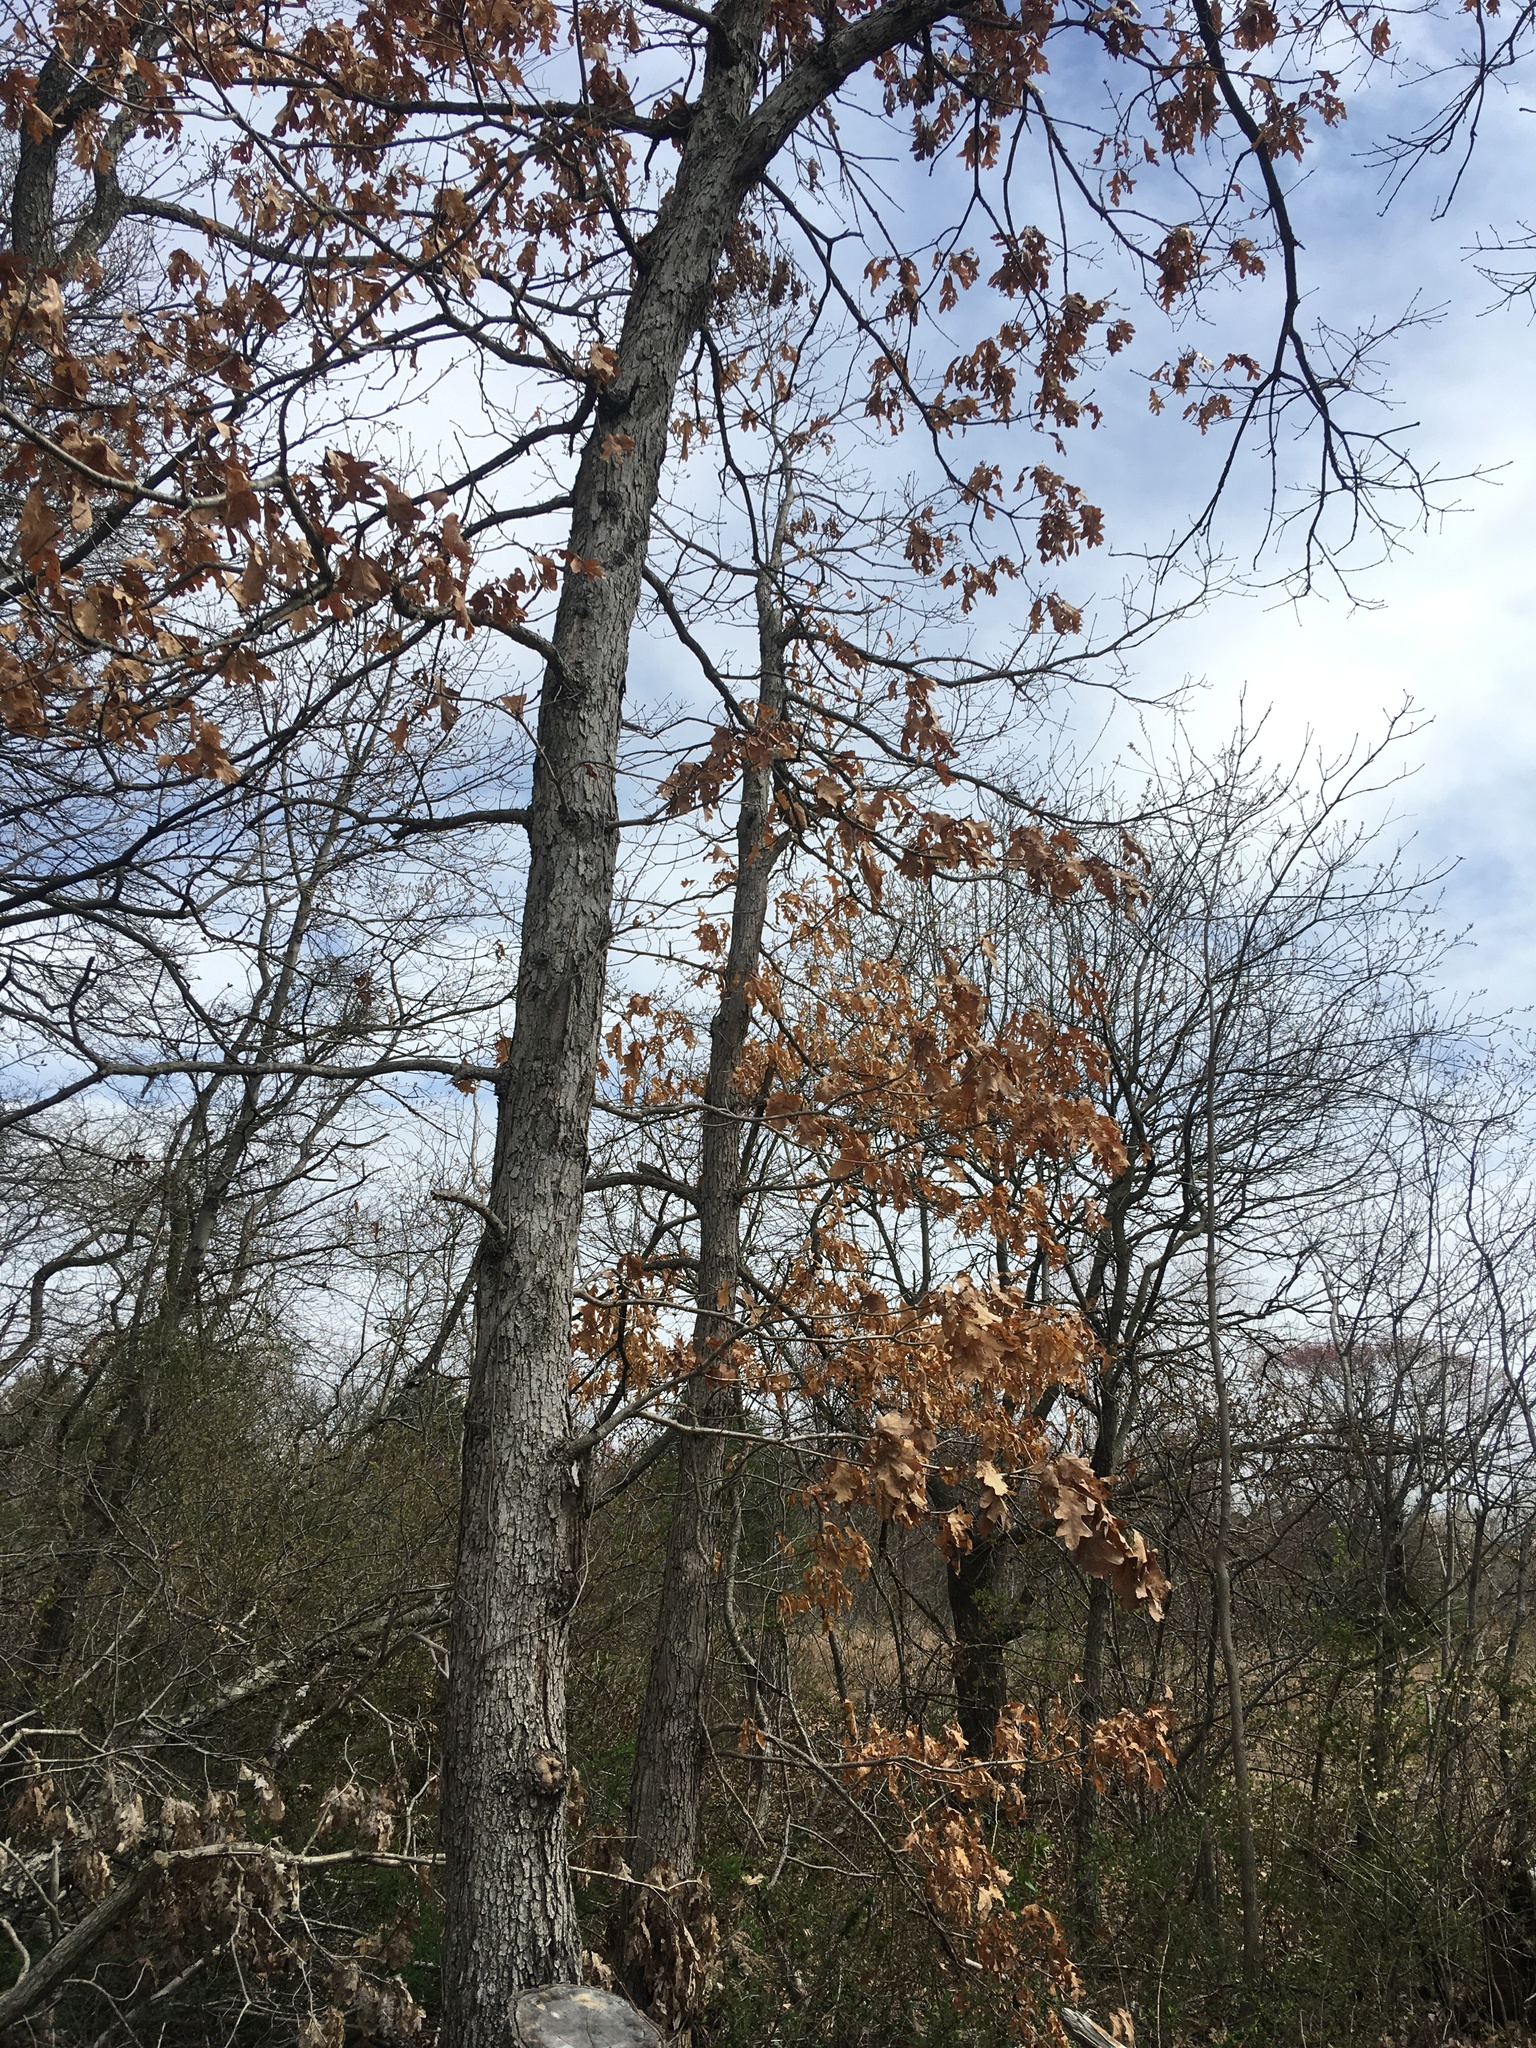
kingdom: Plantae
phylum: Tracheophyta
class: Magnoliopsida
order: Fagales
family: Fagaceae
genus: Quercus
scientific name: Quercus alba
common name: White oak
